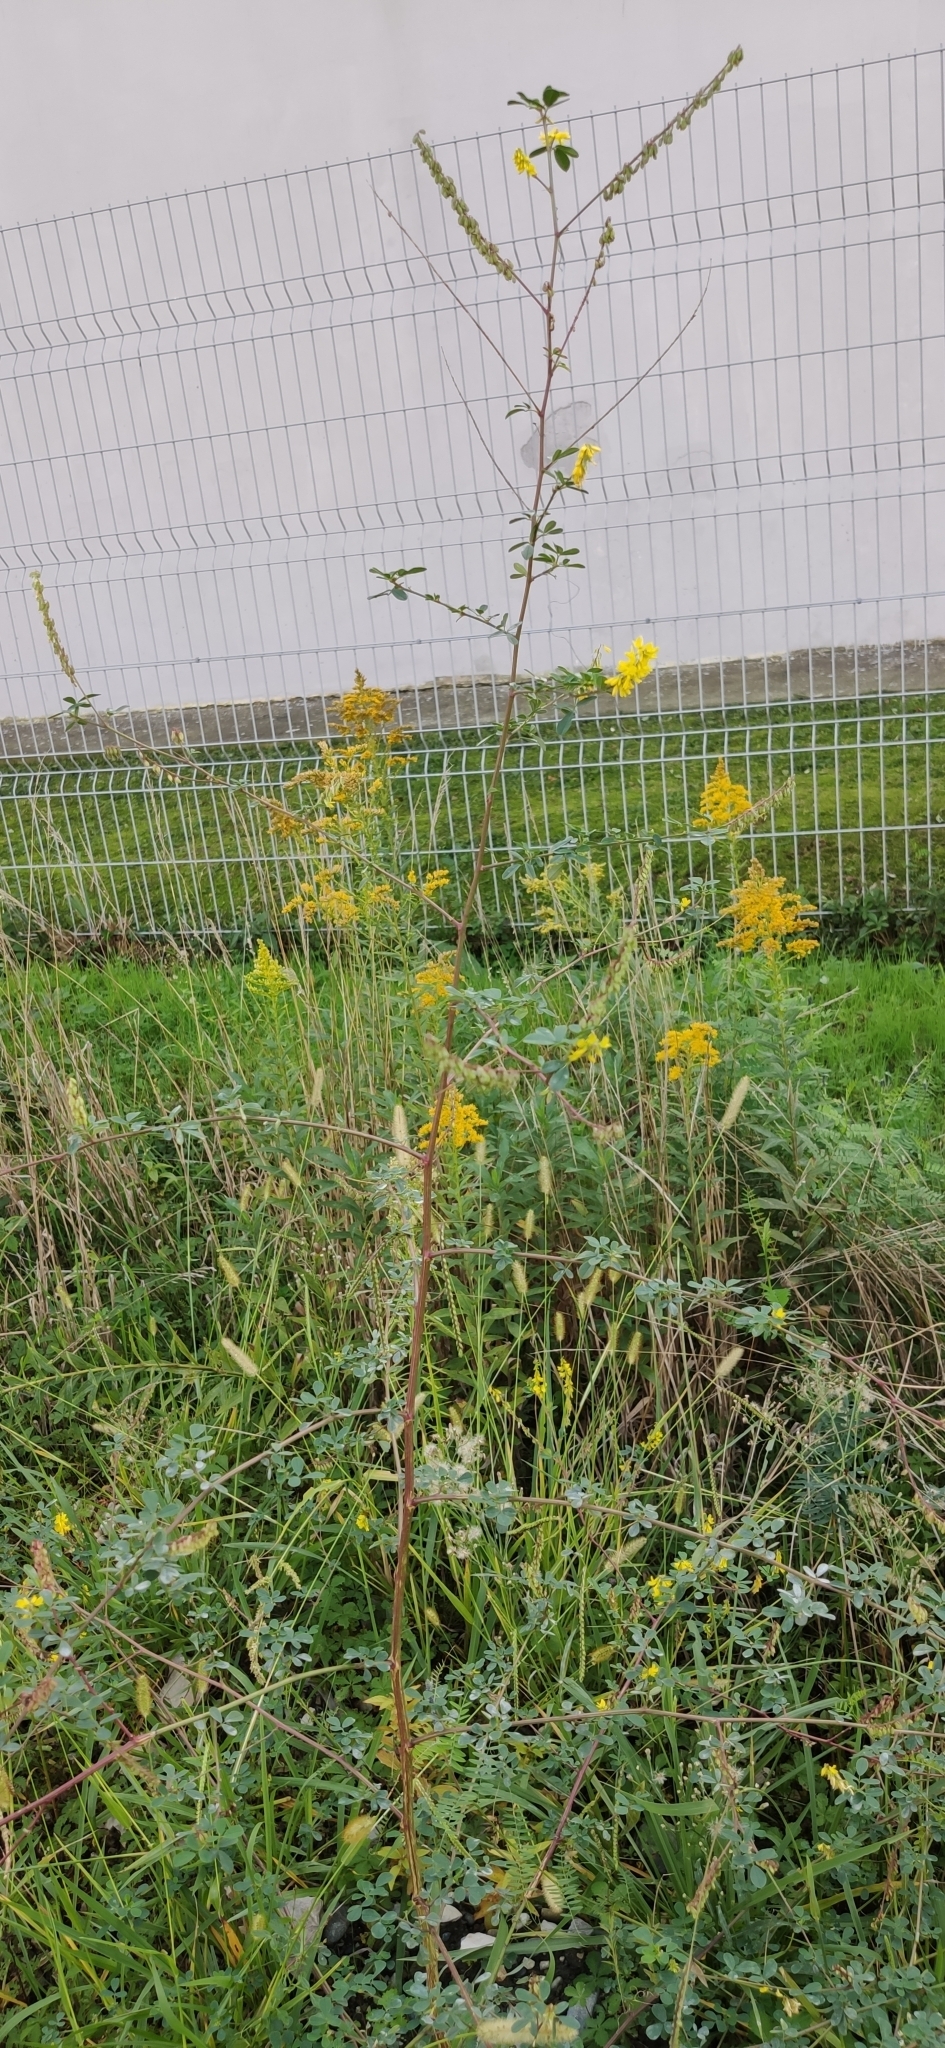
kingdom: Plantae
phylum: Tracheophyta
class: Magnoliopsida
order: Fabales
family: Fabaceae
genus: Melilotus
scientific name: Melilotus officinalis
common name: Sweetclover
